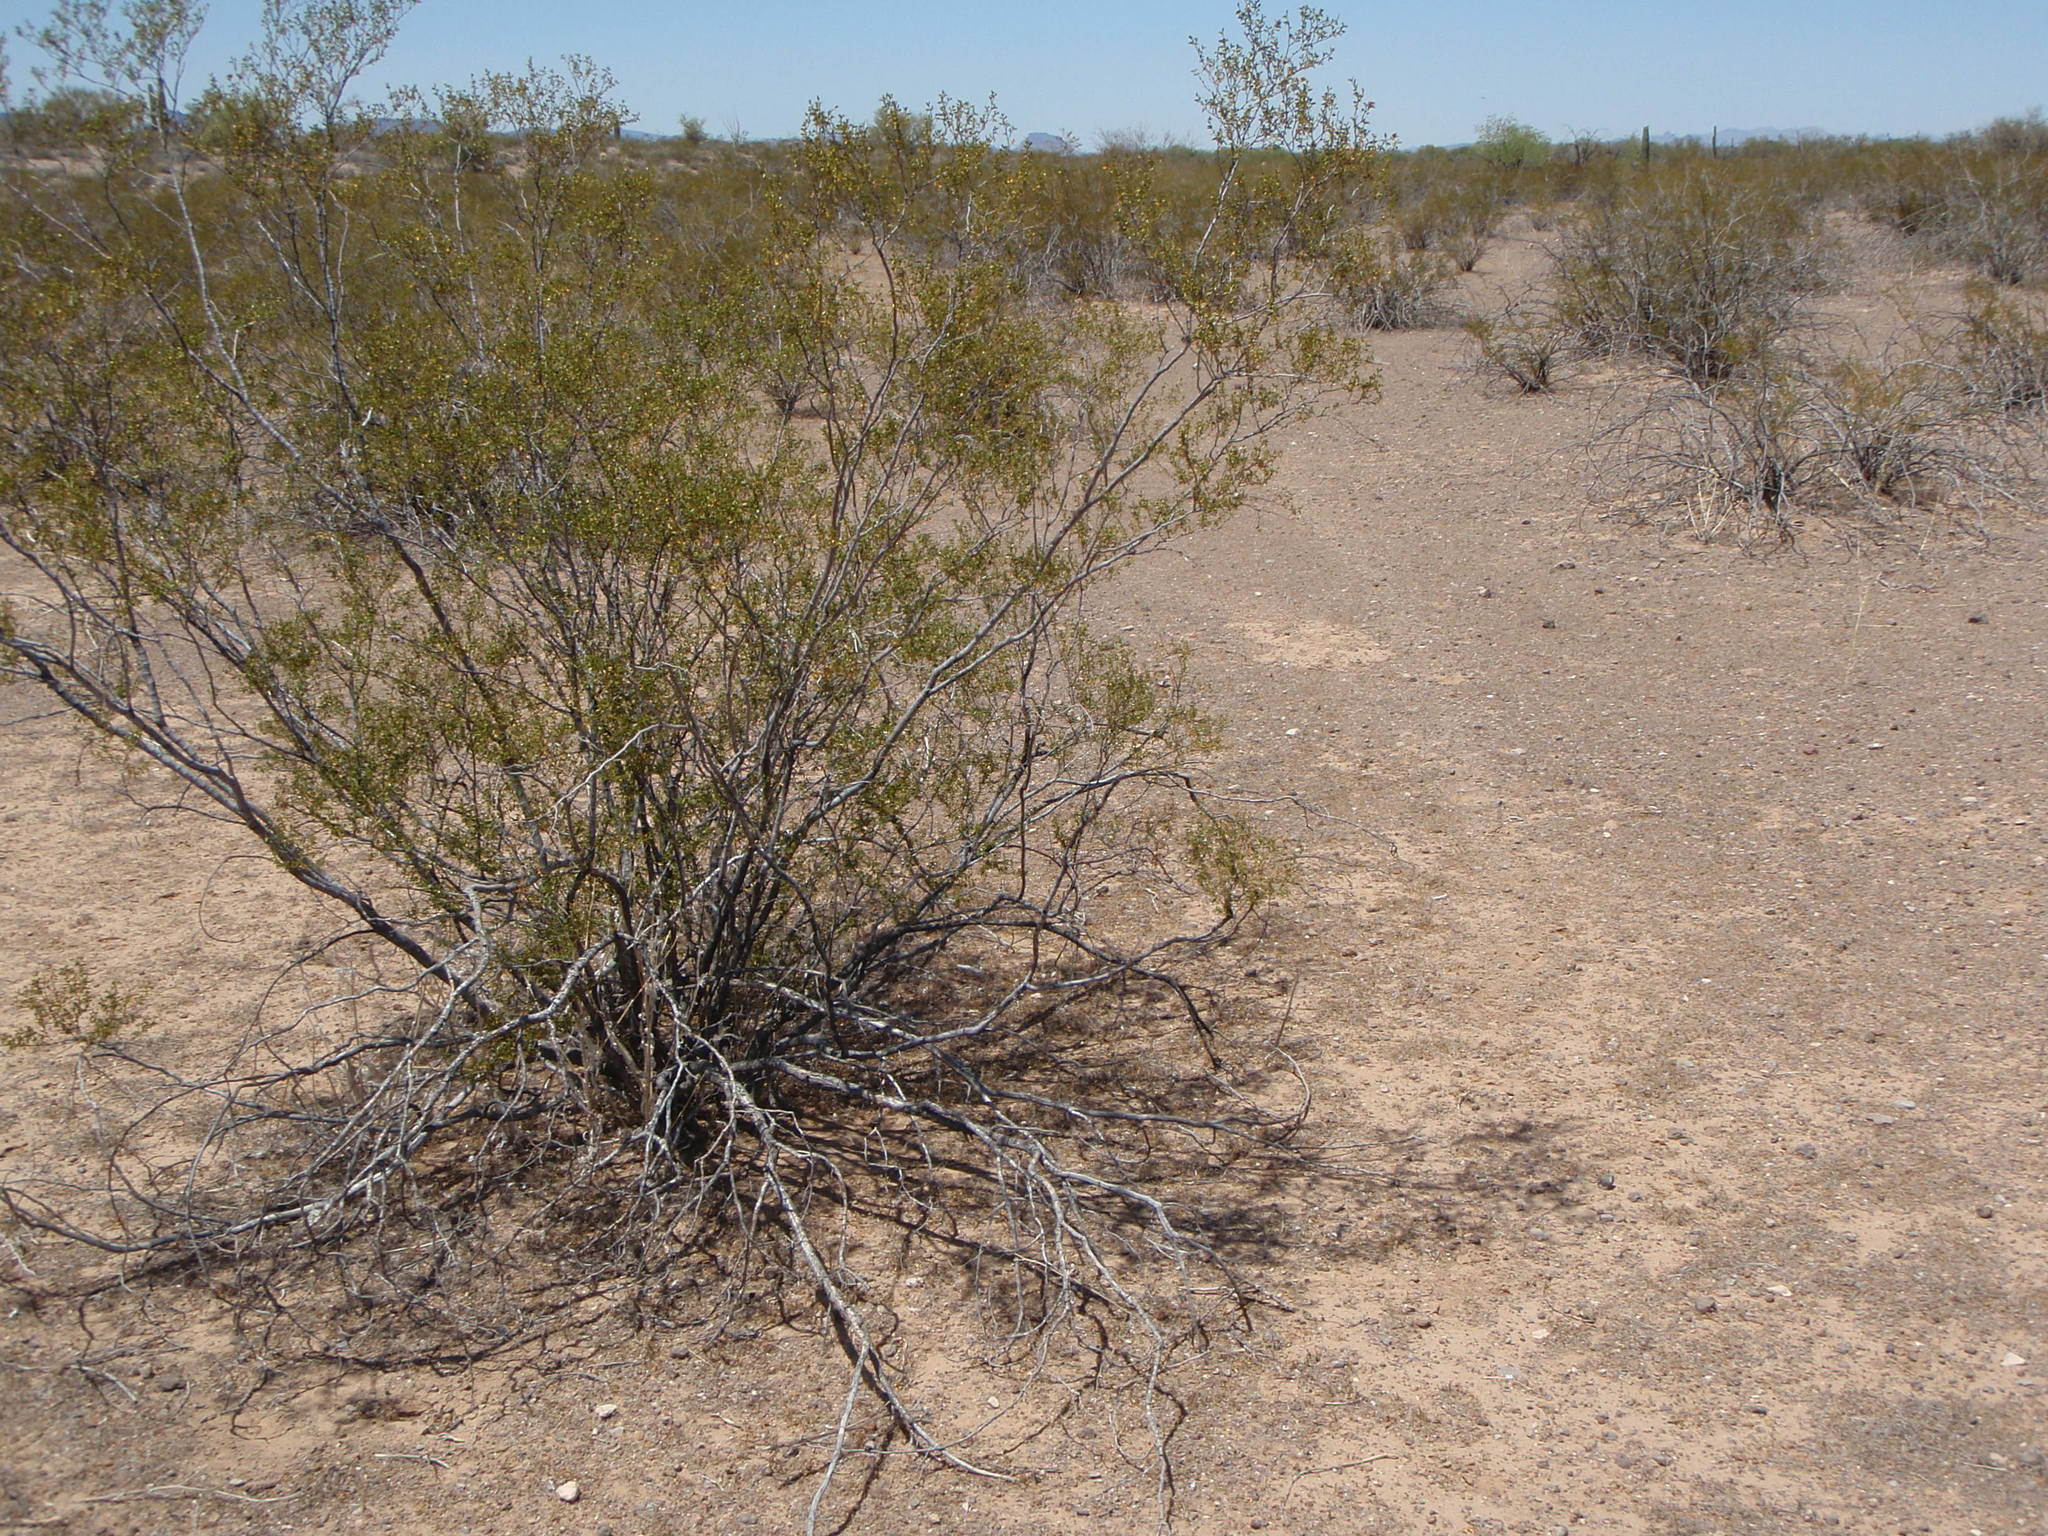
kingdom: Plantae
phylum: Tracheophyta
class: Magnoliopsida
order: Zygophyllales
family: Zygophyllaceae
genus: Larrea
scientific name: Larrea tridentata
